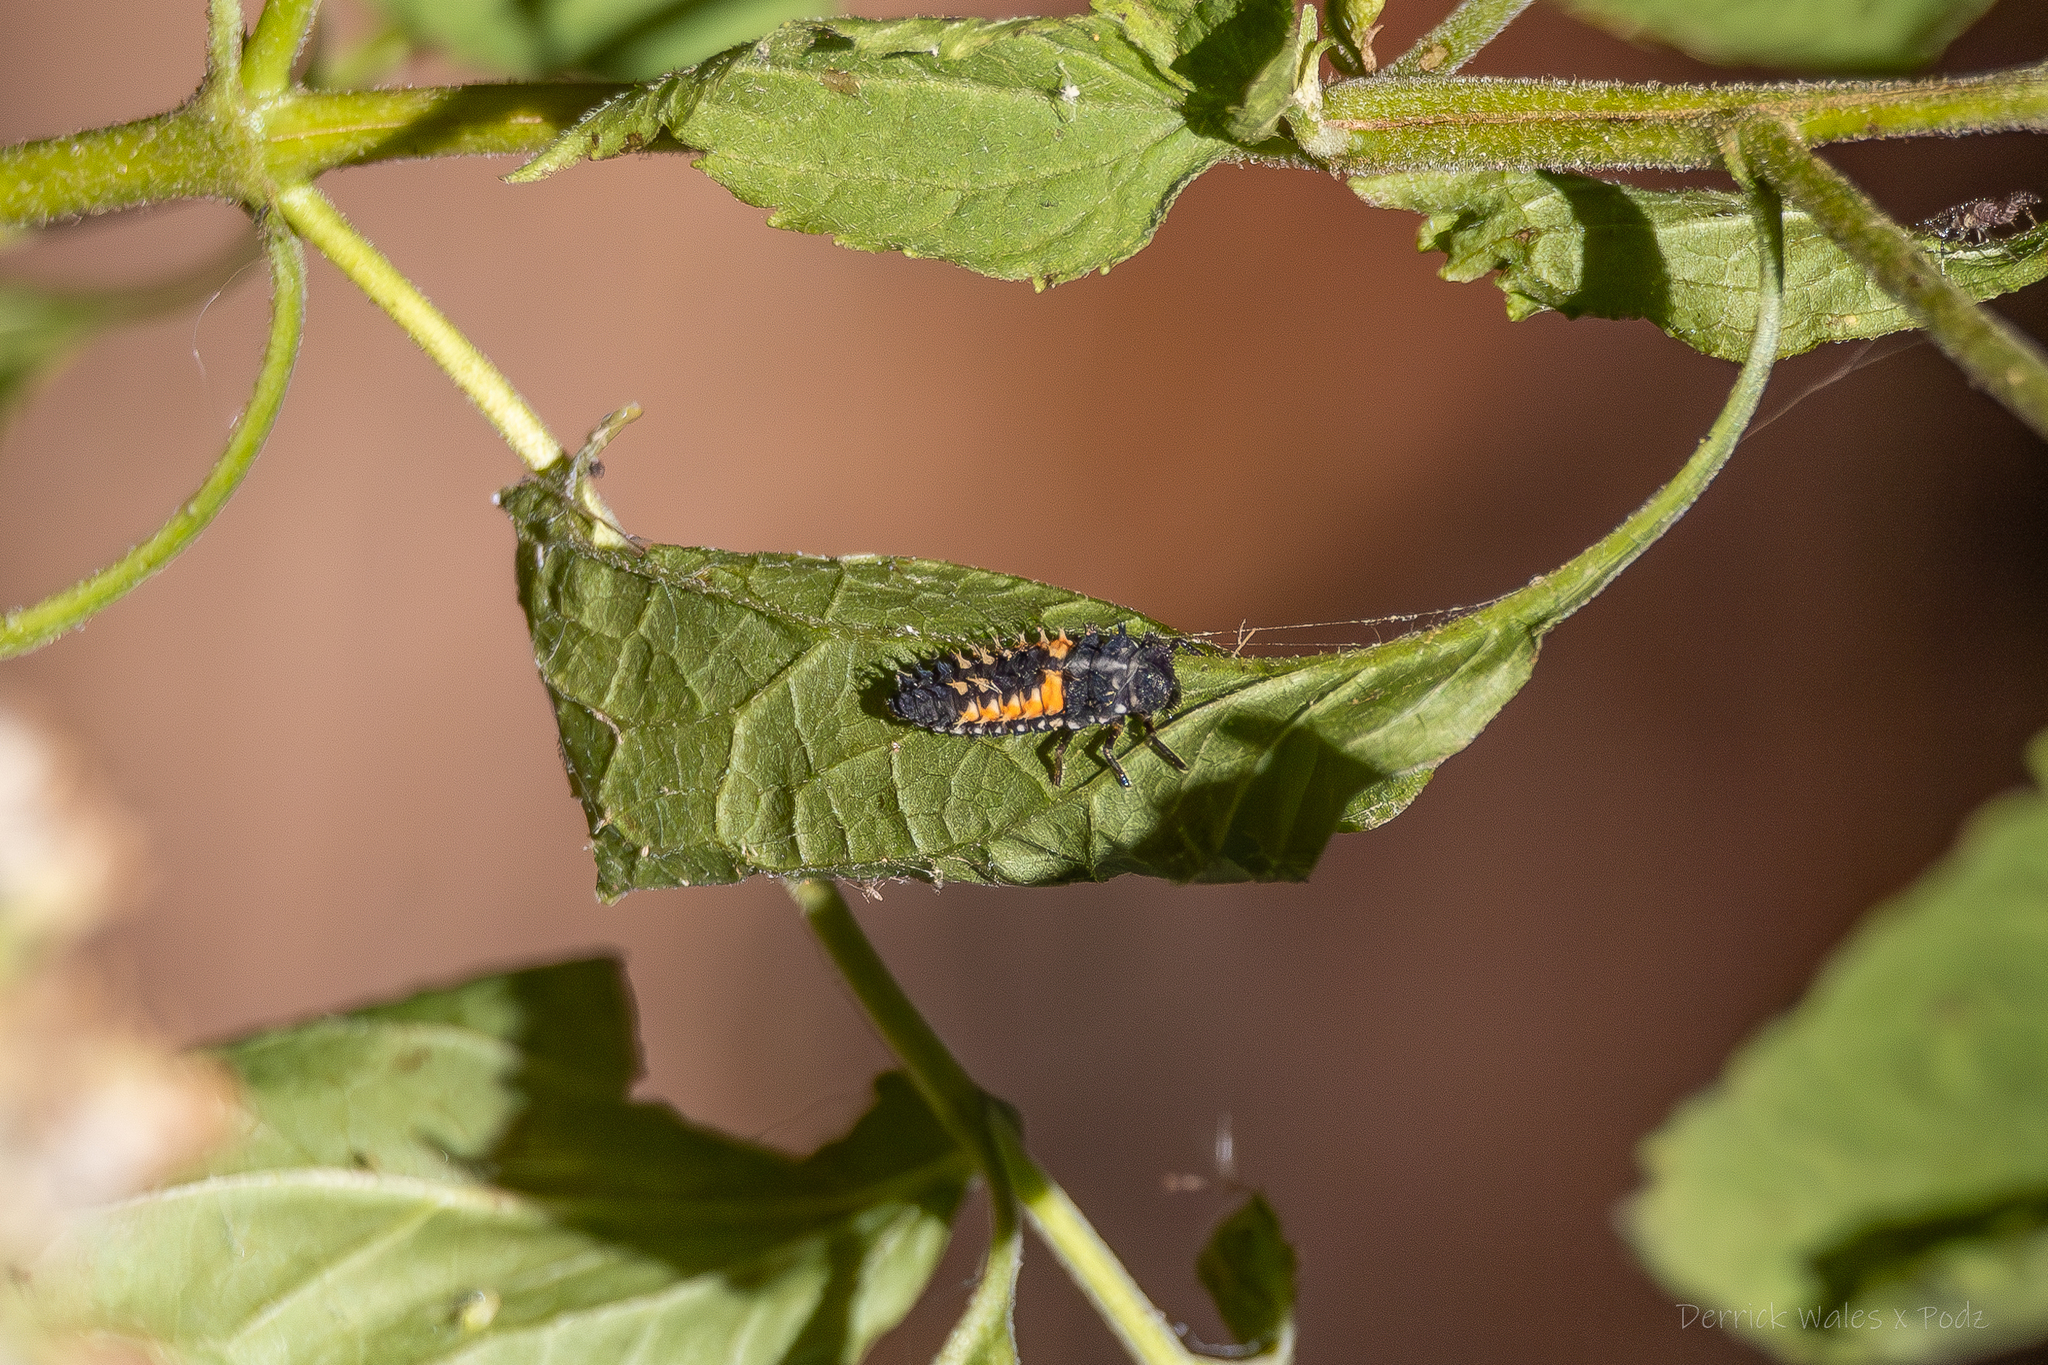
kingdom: Animalia
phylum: Arthropoda
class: Insecta
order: Coleoptera
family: Coccinellidae
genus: Harmonia
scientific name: Harmonia axyridis
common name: Harlequin ladybird
